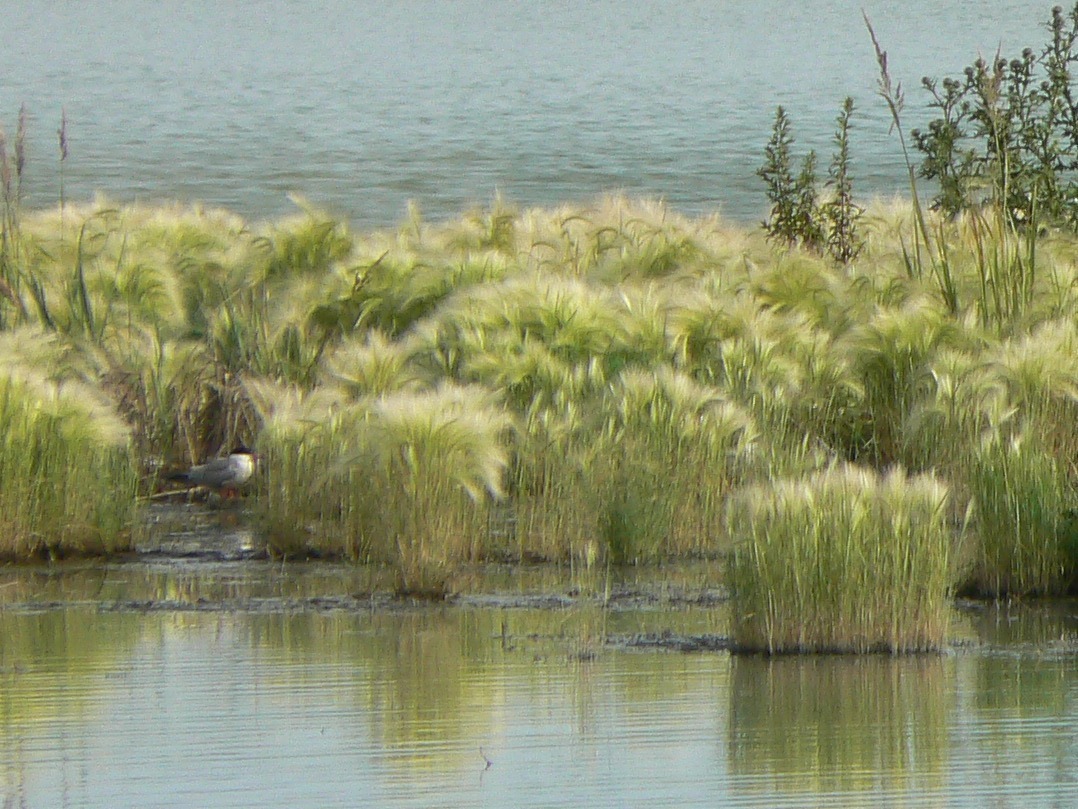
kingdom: Plantae
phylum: Tracheophyta
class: Liliopsida
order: Poales
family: Poaceae
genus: Hordeum
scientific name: Hordeum jubatum
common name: Foxtail barley
